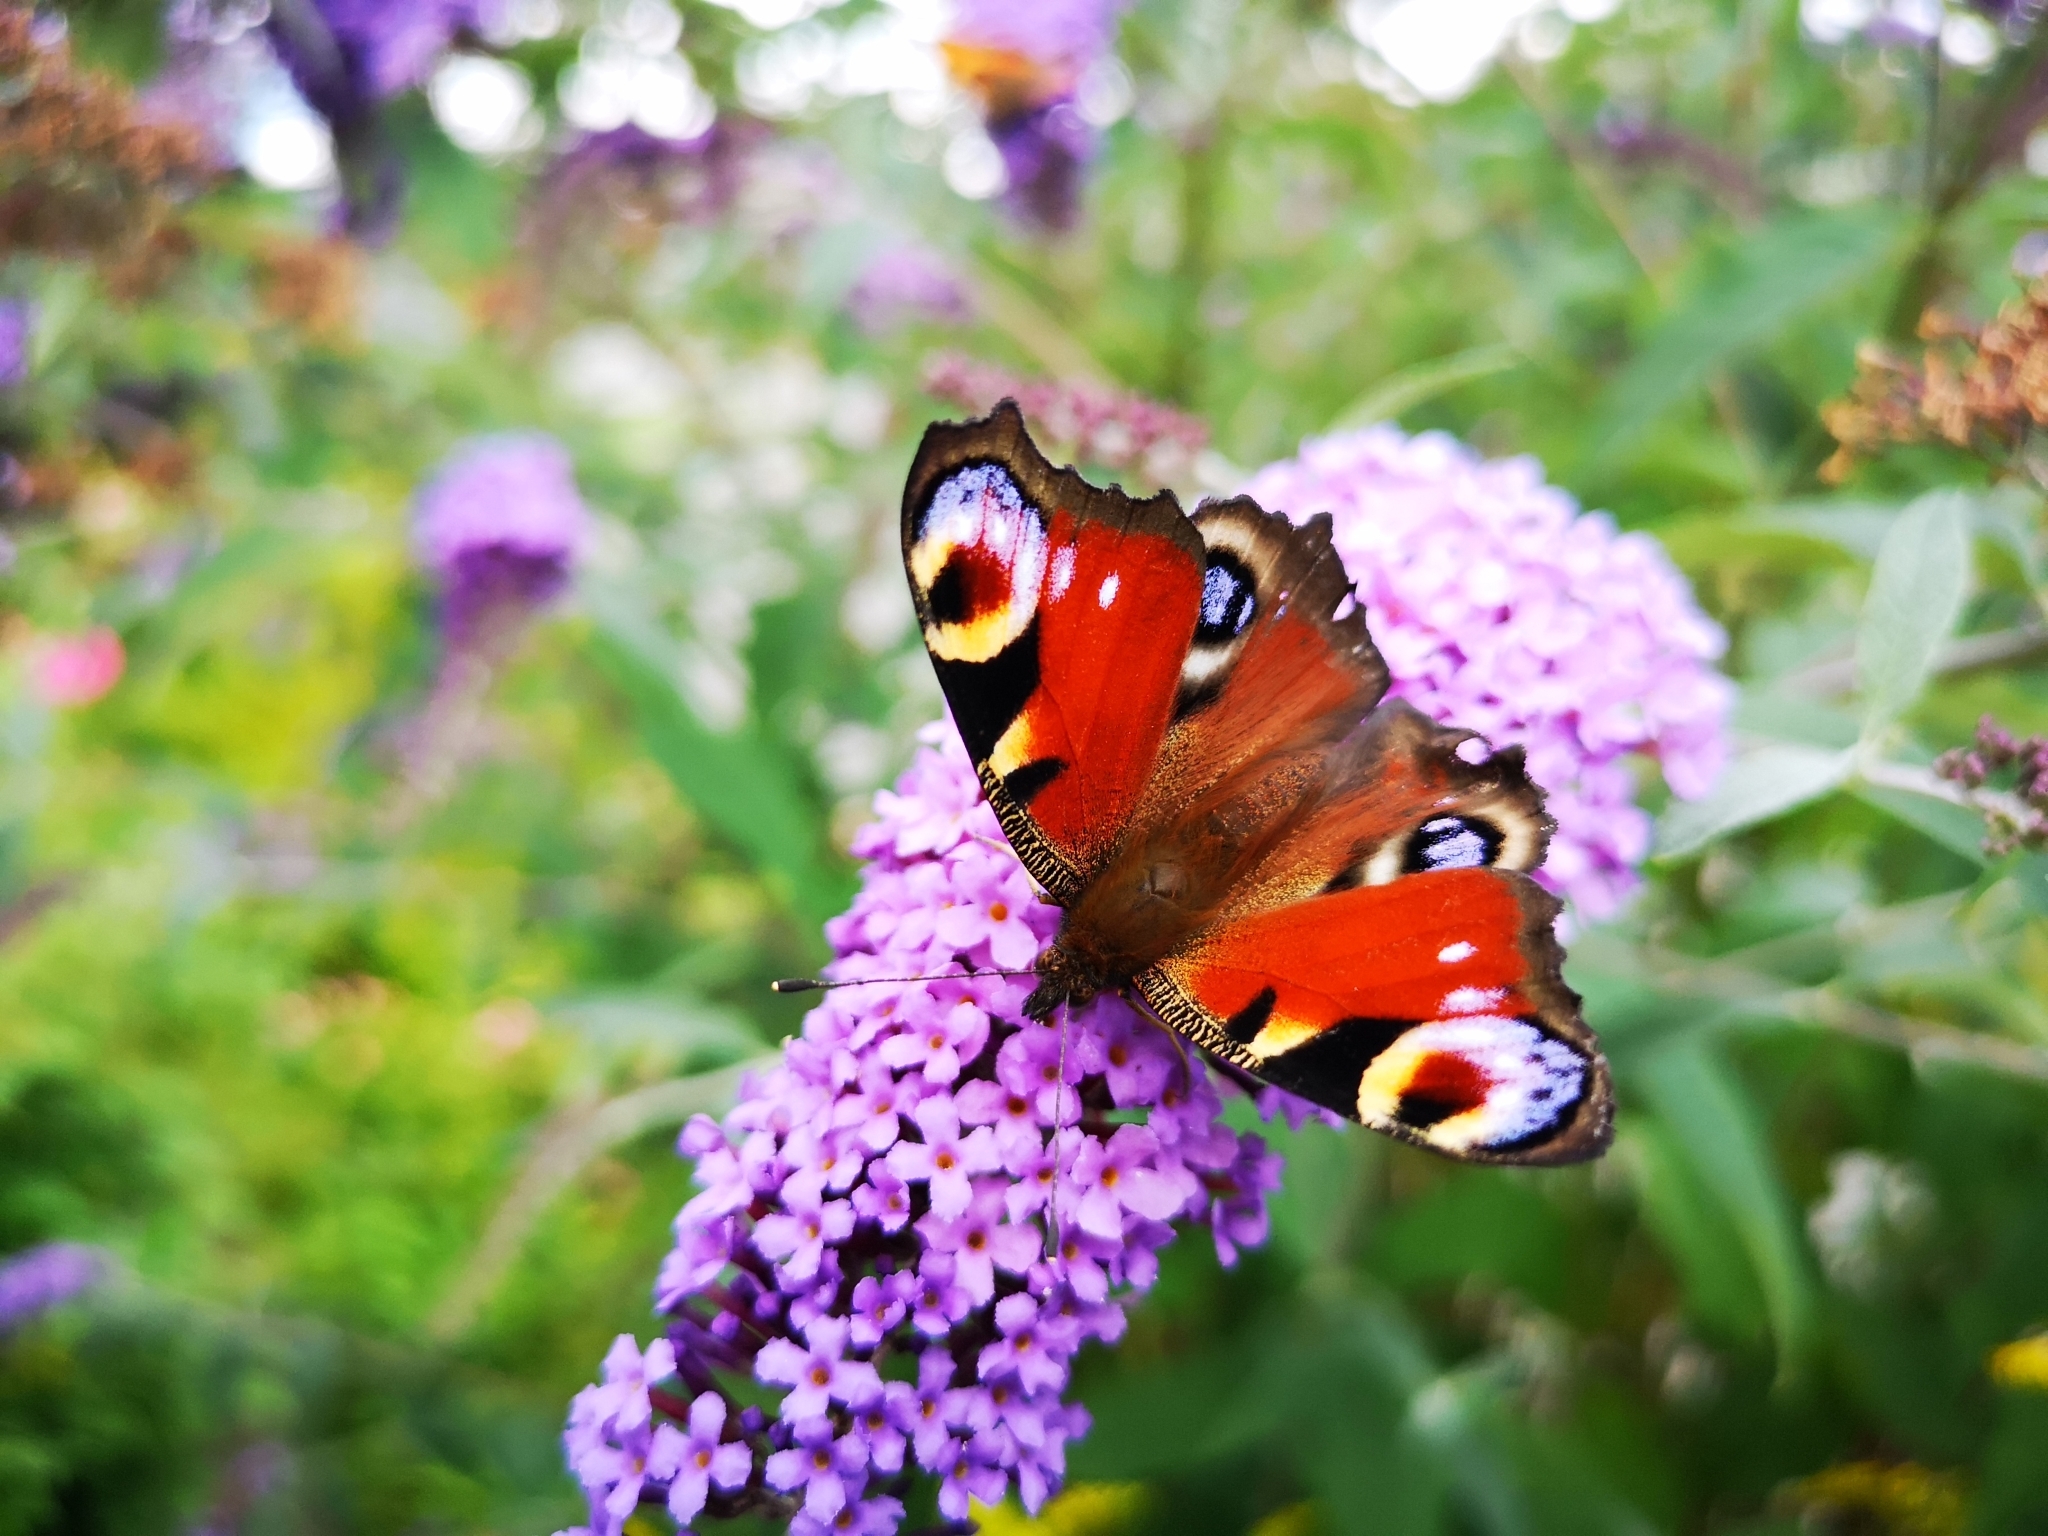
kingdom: Animalia
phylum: Arthropoda
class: Insecta
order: Lepidoptera
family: Nymphalidae
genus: Aglais
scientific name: Aglais io
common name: Peacock
